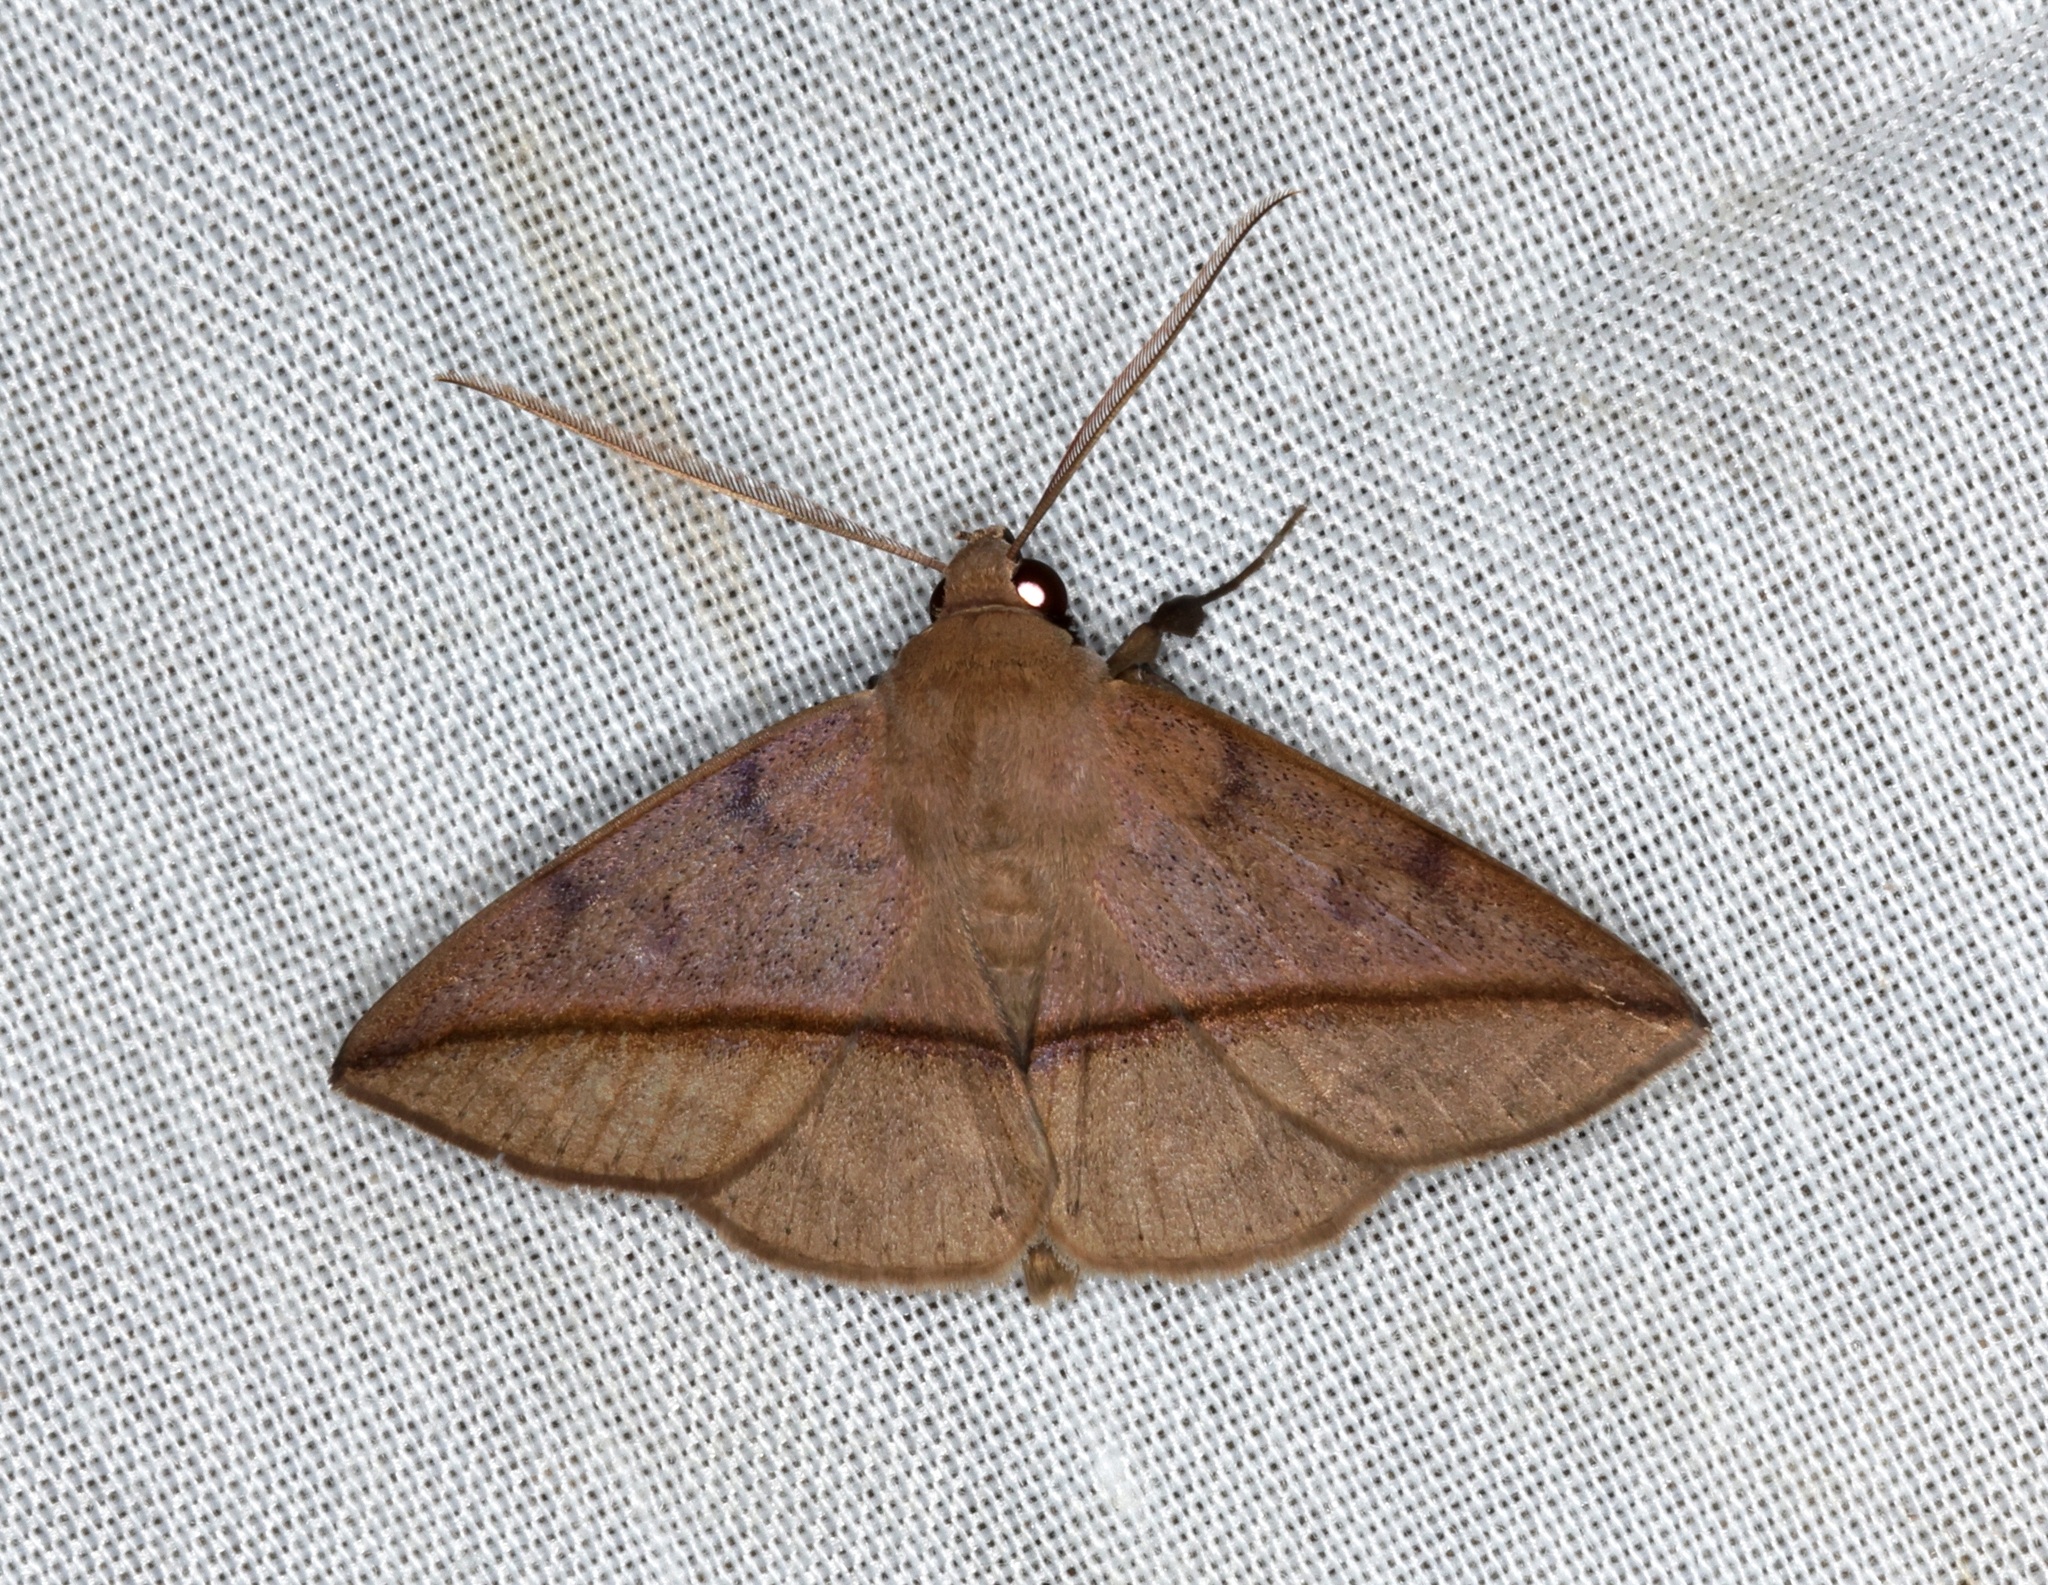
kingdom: Animalia
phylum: Arthropoda
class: Insecta
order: Lepidoptera
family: Erebidae
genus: Ugia
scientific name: Ugia purpurea
